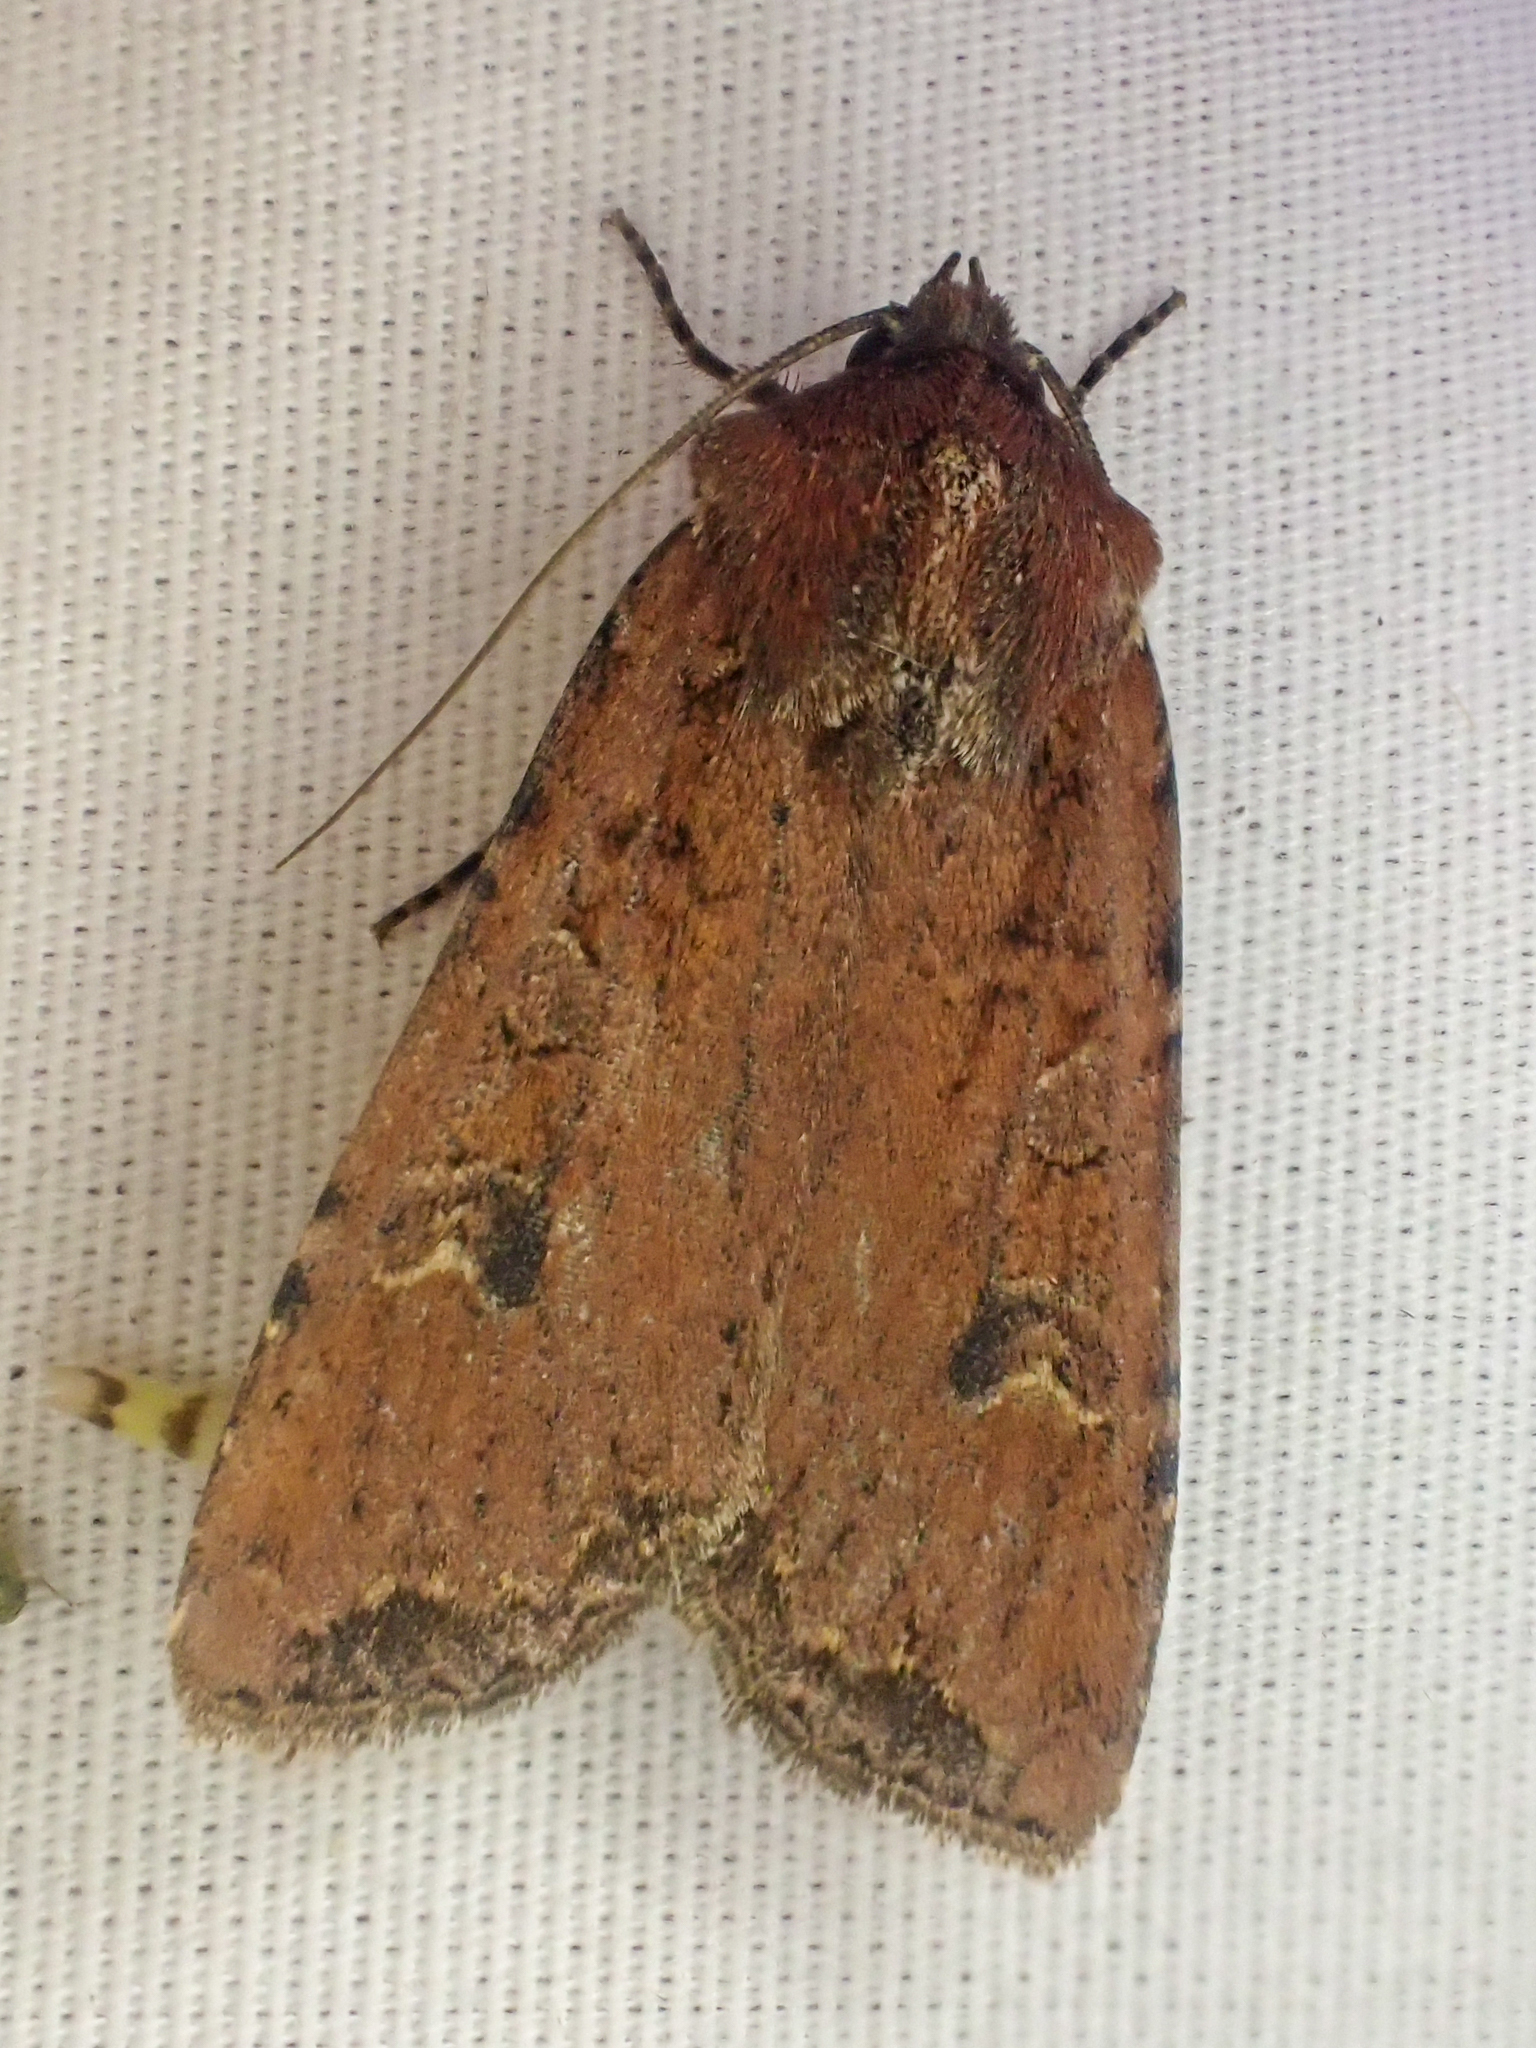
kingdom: Animalia
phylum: Arthropoda
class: Insecta
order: Lepidoptera
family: Noctuidae
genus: Euxoa
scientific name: Euxoa ochrogaster
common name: Red-backed cutworm moth
